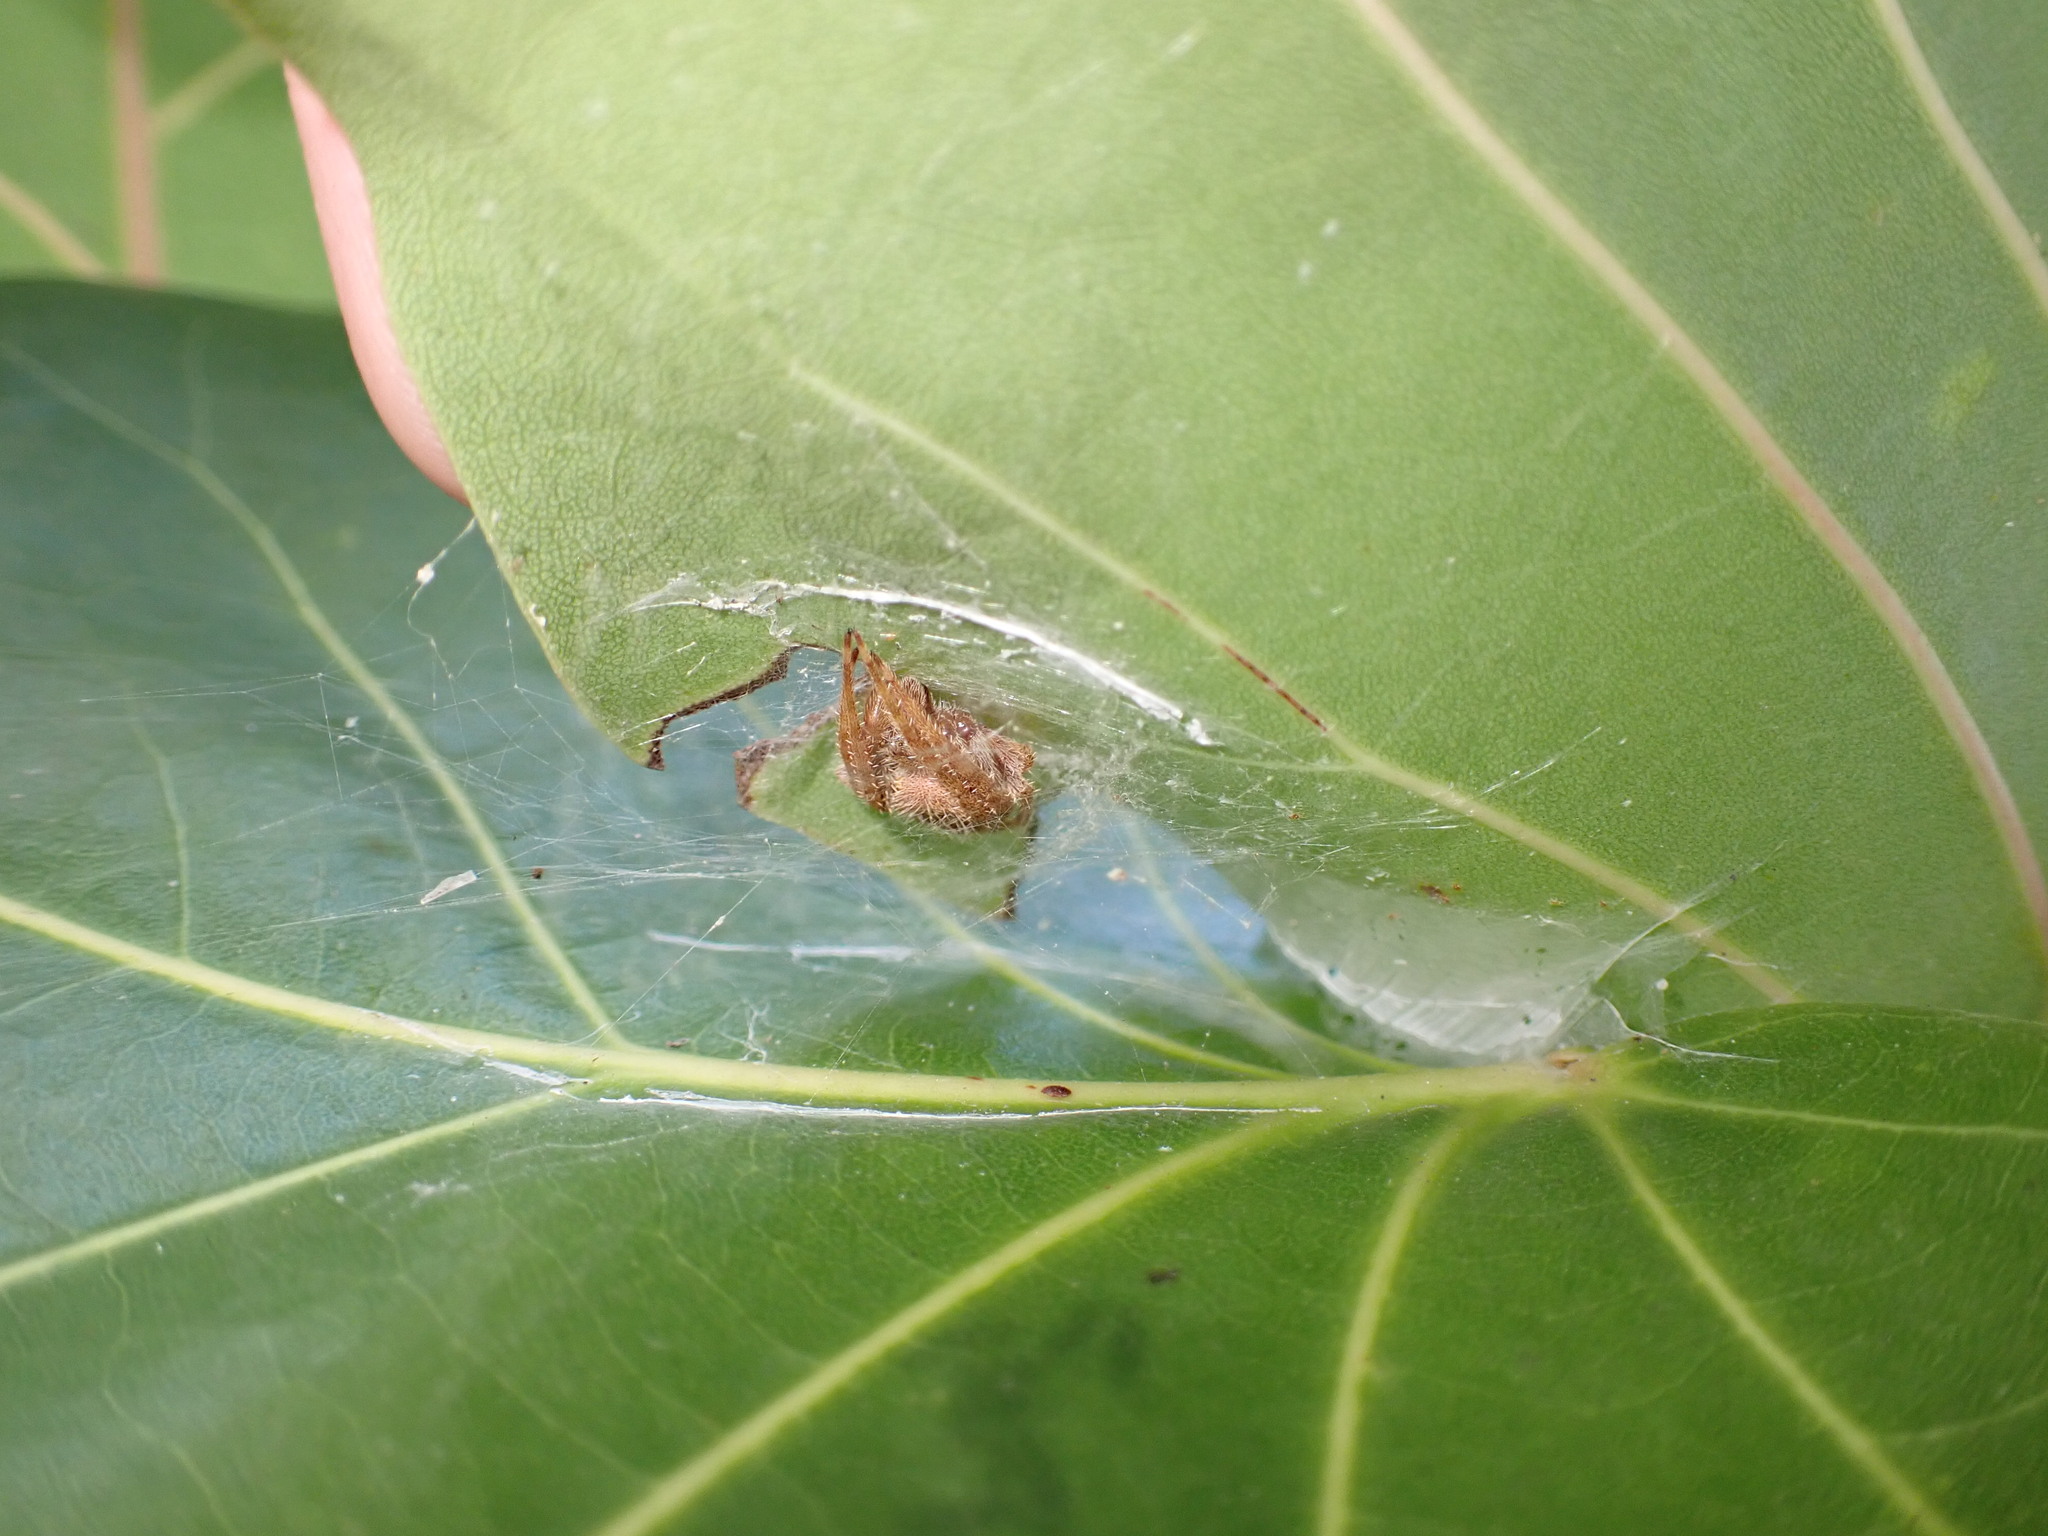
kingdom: Animalia
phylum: Arthropoda
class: Arachnida
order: Araneae
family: Araneidae
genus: Eriophora
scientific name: Eriophora ravilla
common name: Orb weavers
